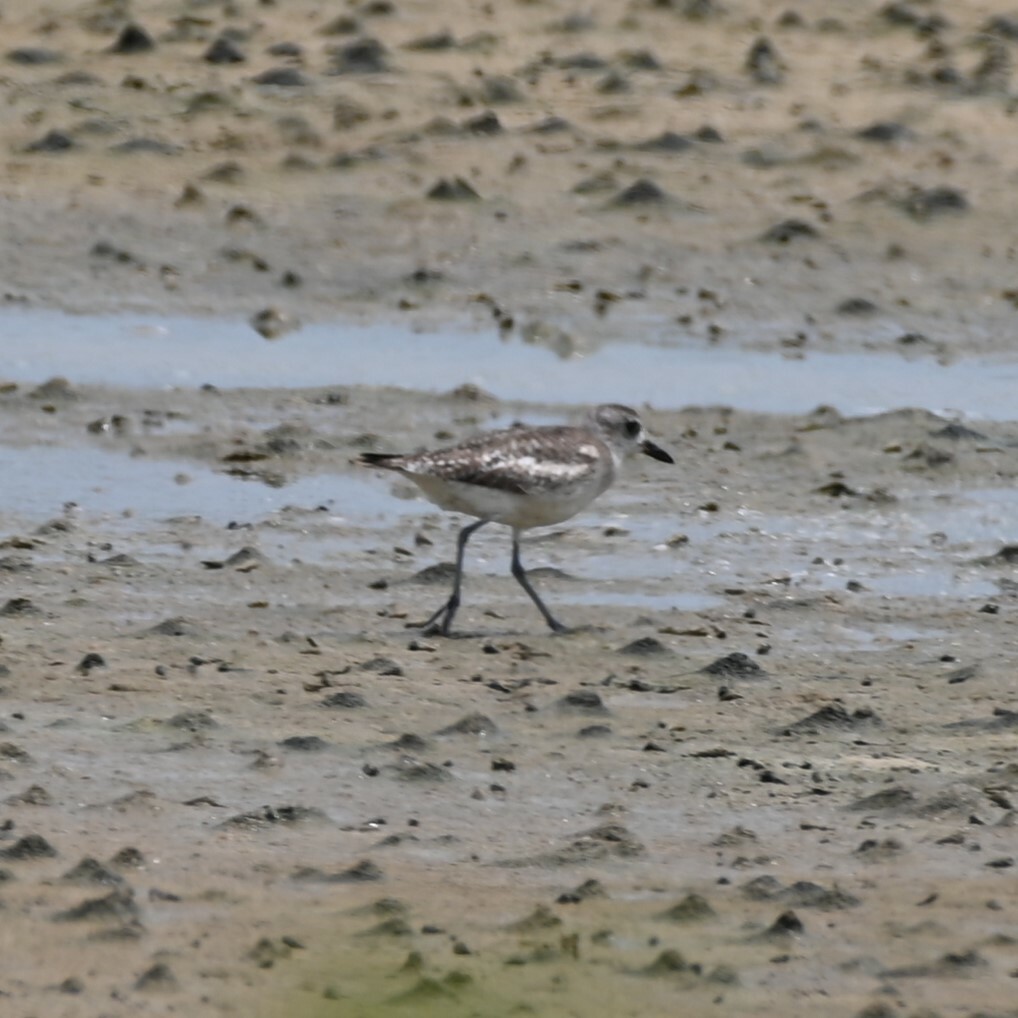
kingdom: Animalia
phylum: Chordata
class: Aves
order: Charadriiformes
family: Charadriidae
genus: Pluvialis
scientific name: Pluvialis squatarola
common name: Grey plover
